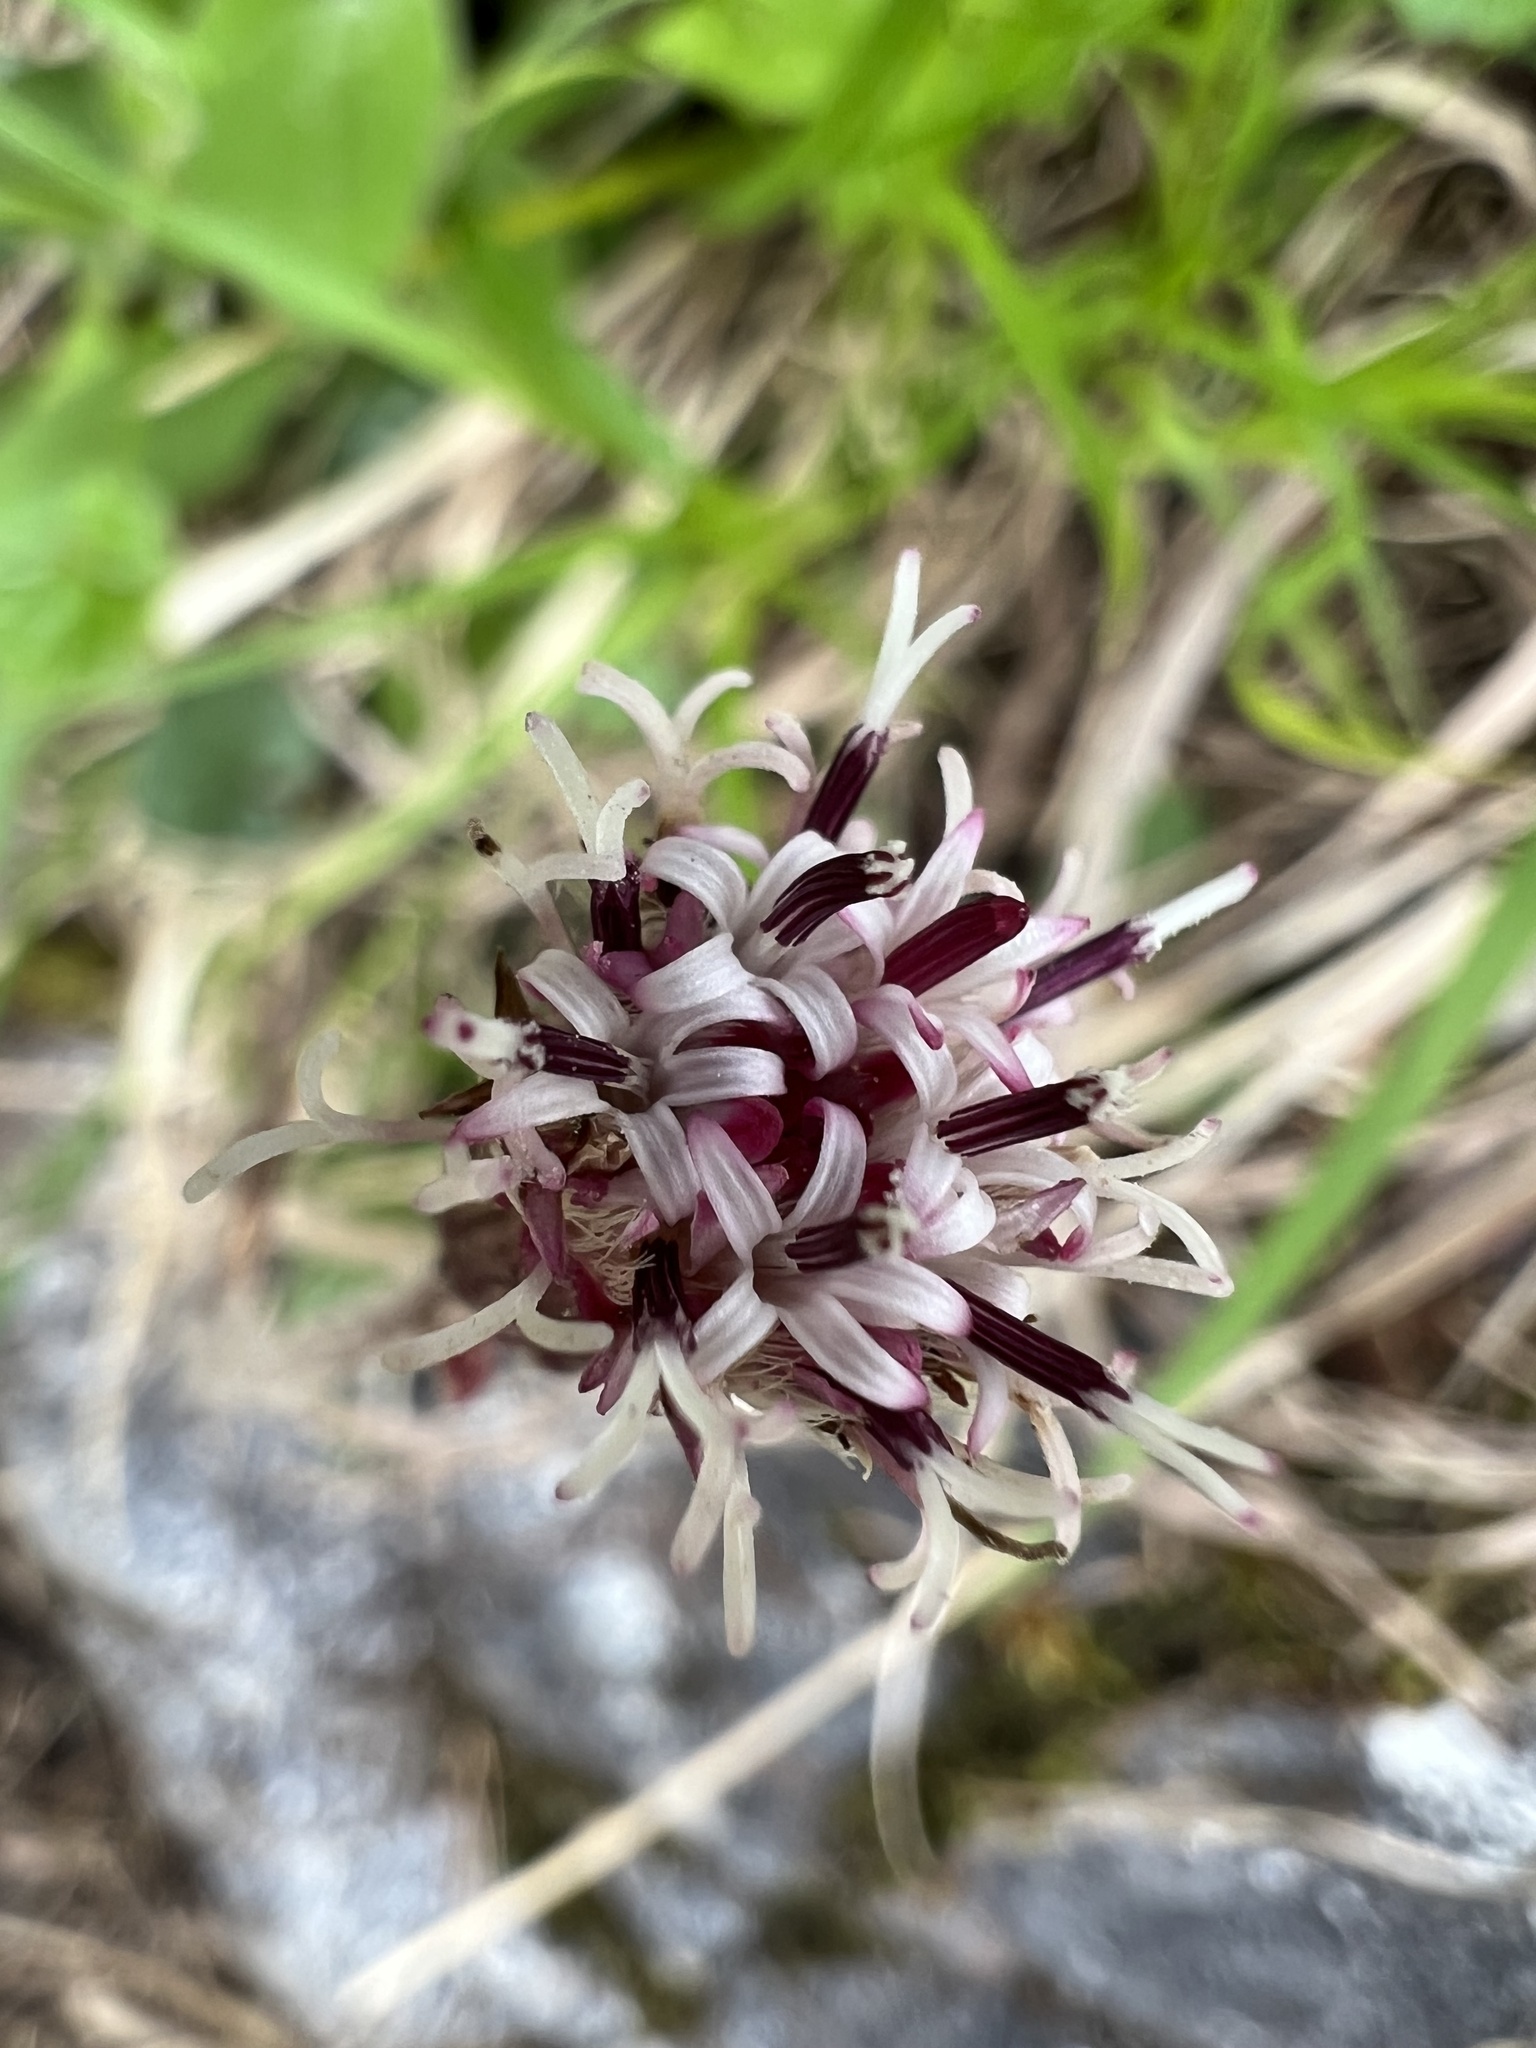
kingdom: Plantae
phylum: Tracheophyta
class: Magnoliopsida
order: Asterales
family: Asteraceae
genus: Homogyne
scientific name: Homogyne alpina
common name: Purple colt's-foot
